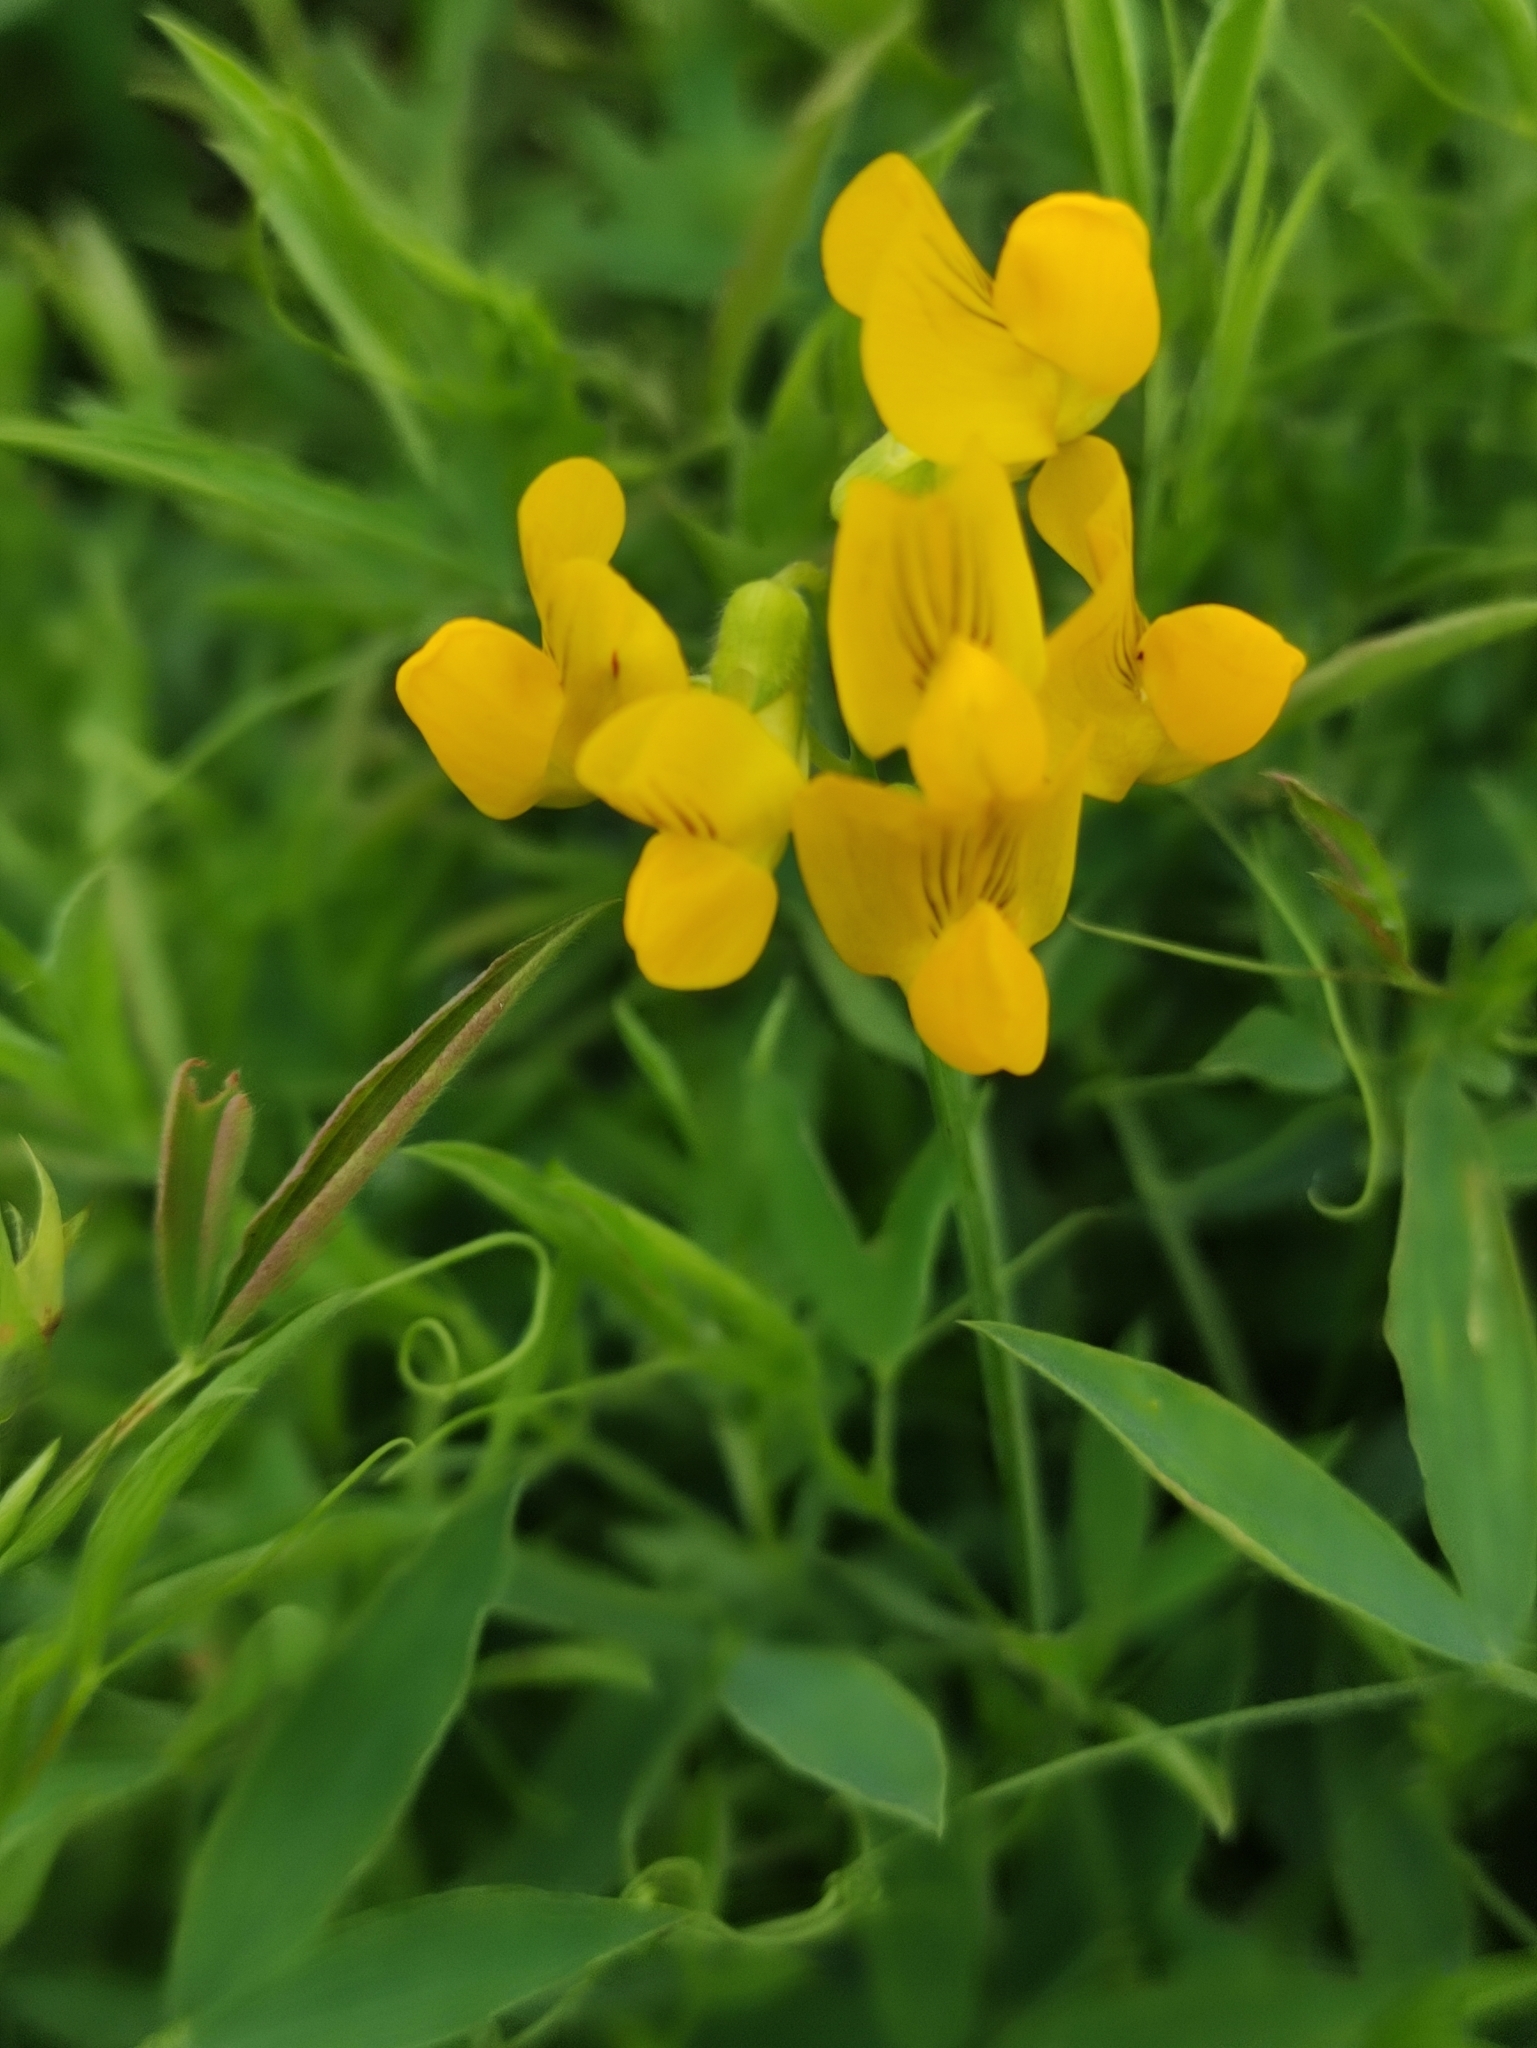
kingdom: Plantae
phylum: Tracheophyta
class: Magnoliopsida
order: Fabales
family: Fabaceae
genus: Lathyrus
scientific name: Lathyrus pratensis
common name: Meadow vetchling
